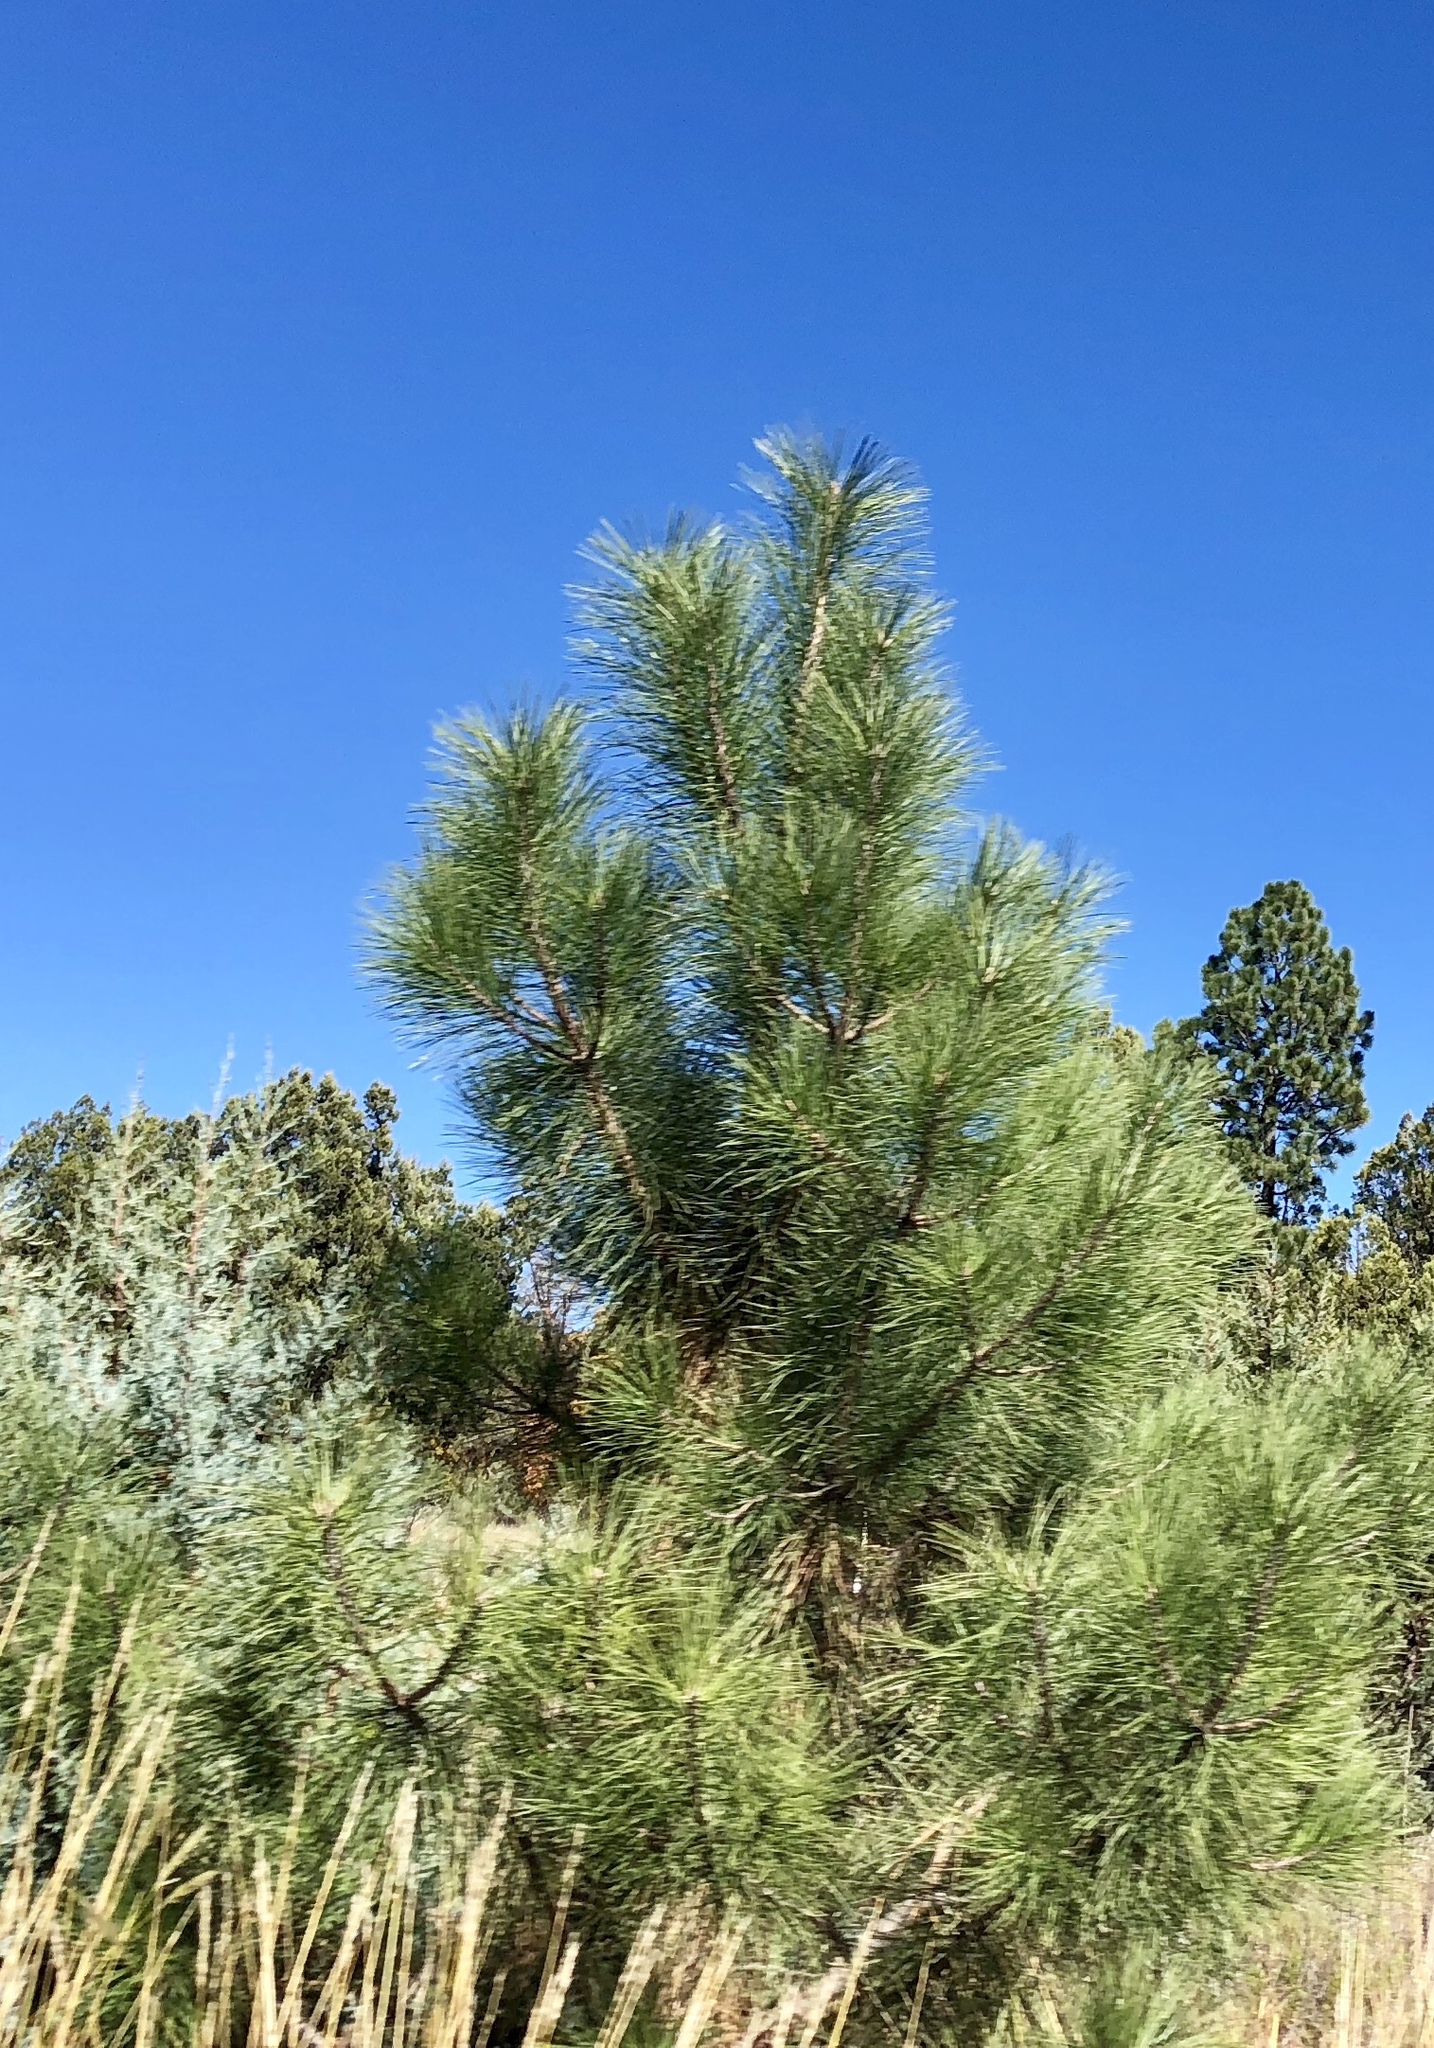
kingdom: Plantae
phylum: Tracheophyta
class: Pinopsida
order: Pinales
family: Pinaceae
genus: Pinus
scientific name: Pinus ponderosa
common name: Western yellow-pine
